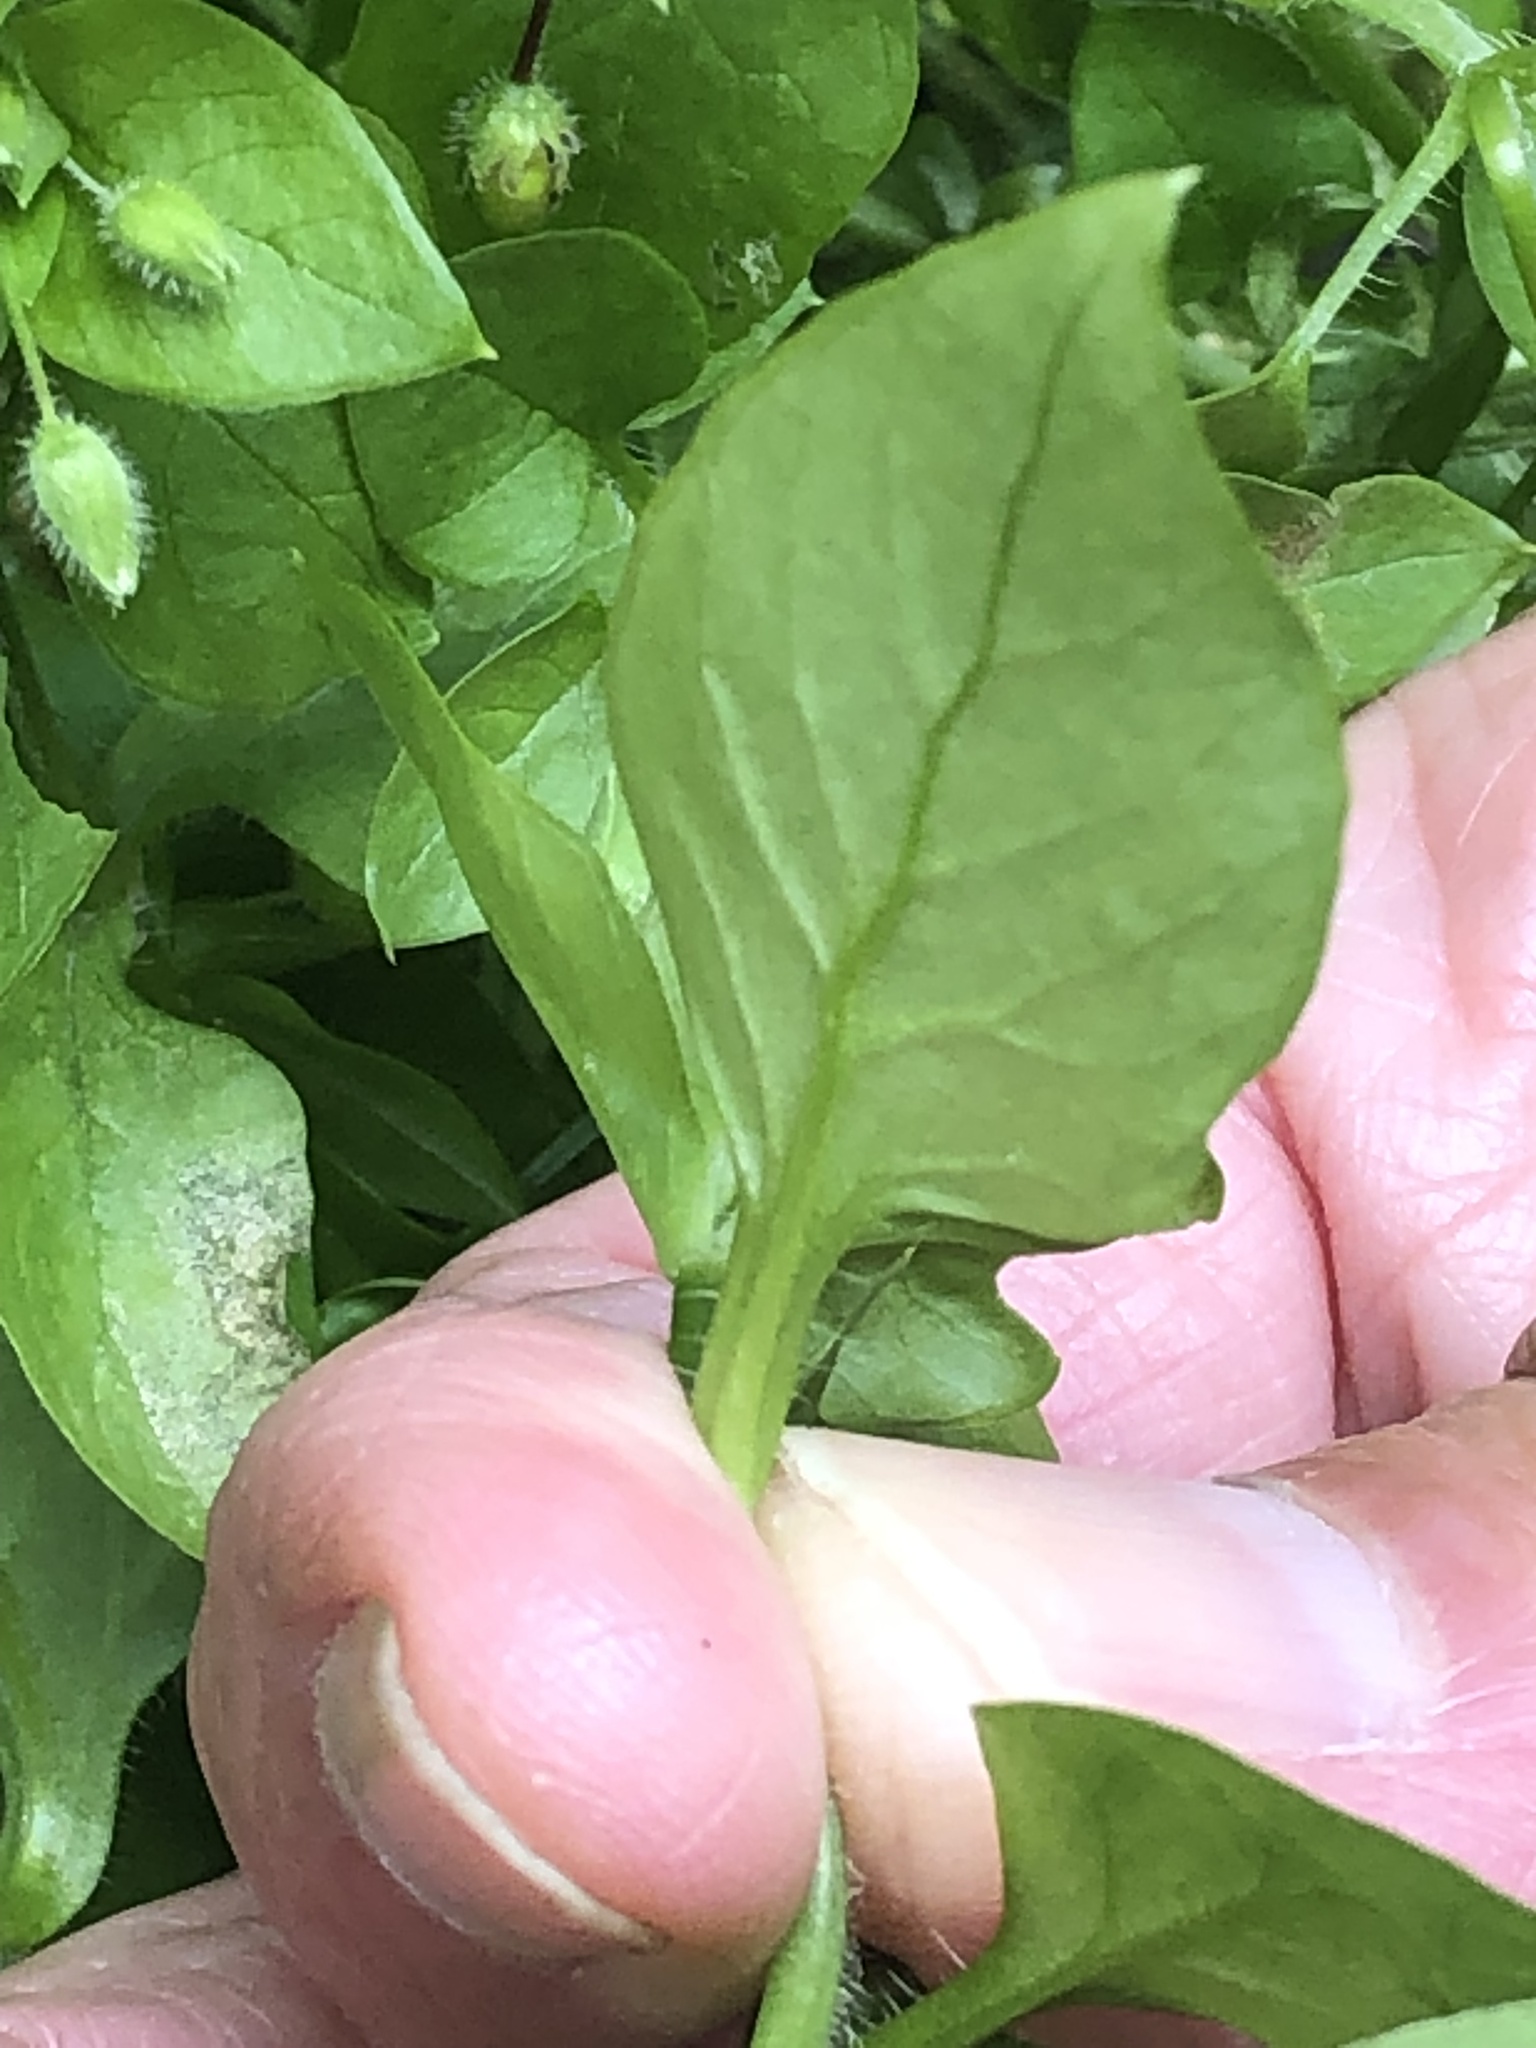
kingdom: Plantae
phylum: Tracheophyta
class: Magnoliopsida
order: Caryophyllales
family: Caryophyllaceae
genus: Stellaria
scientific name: Stellaria media
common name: Common chickweed
